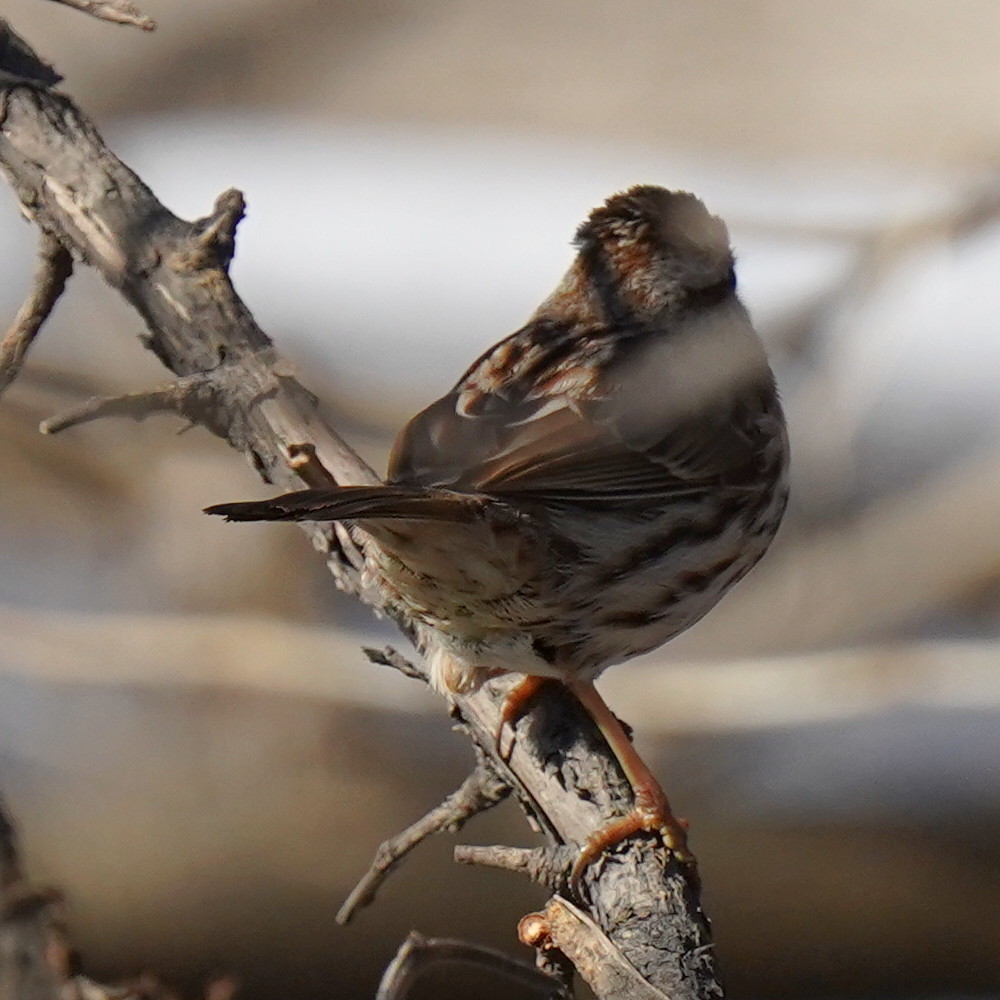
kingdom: Animalia
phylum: Chordata
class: Aves
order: Passeriformes
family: Passerellidae
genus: Melospiza
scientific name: Melospiza melodia
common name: Song sparrow
